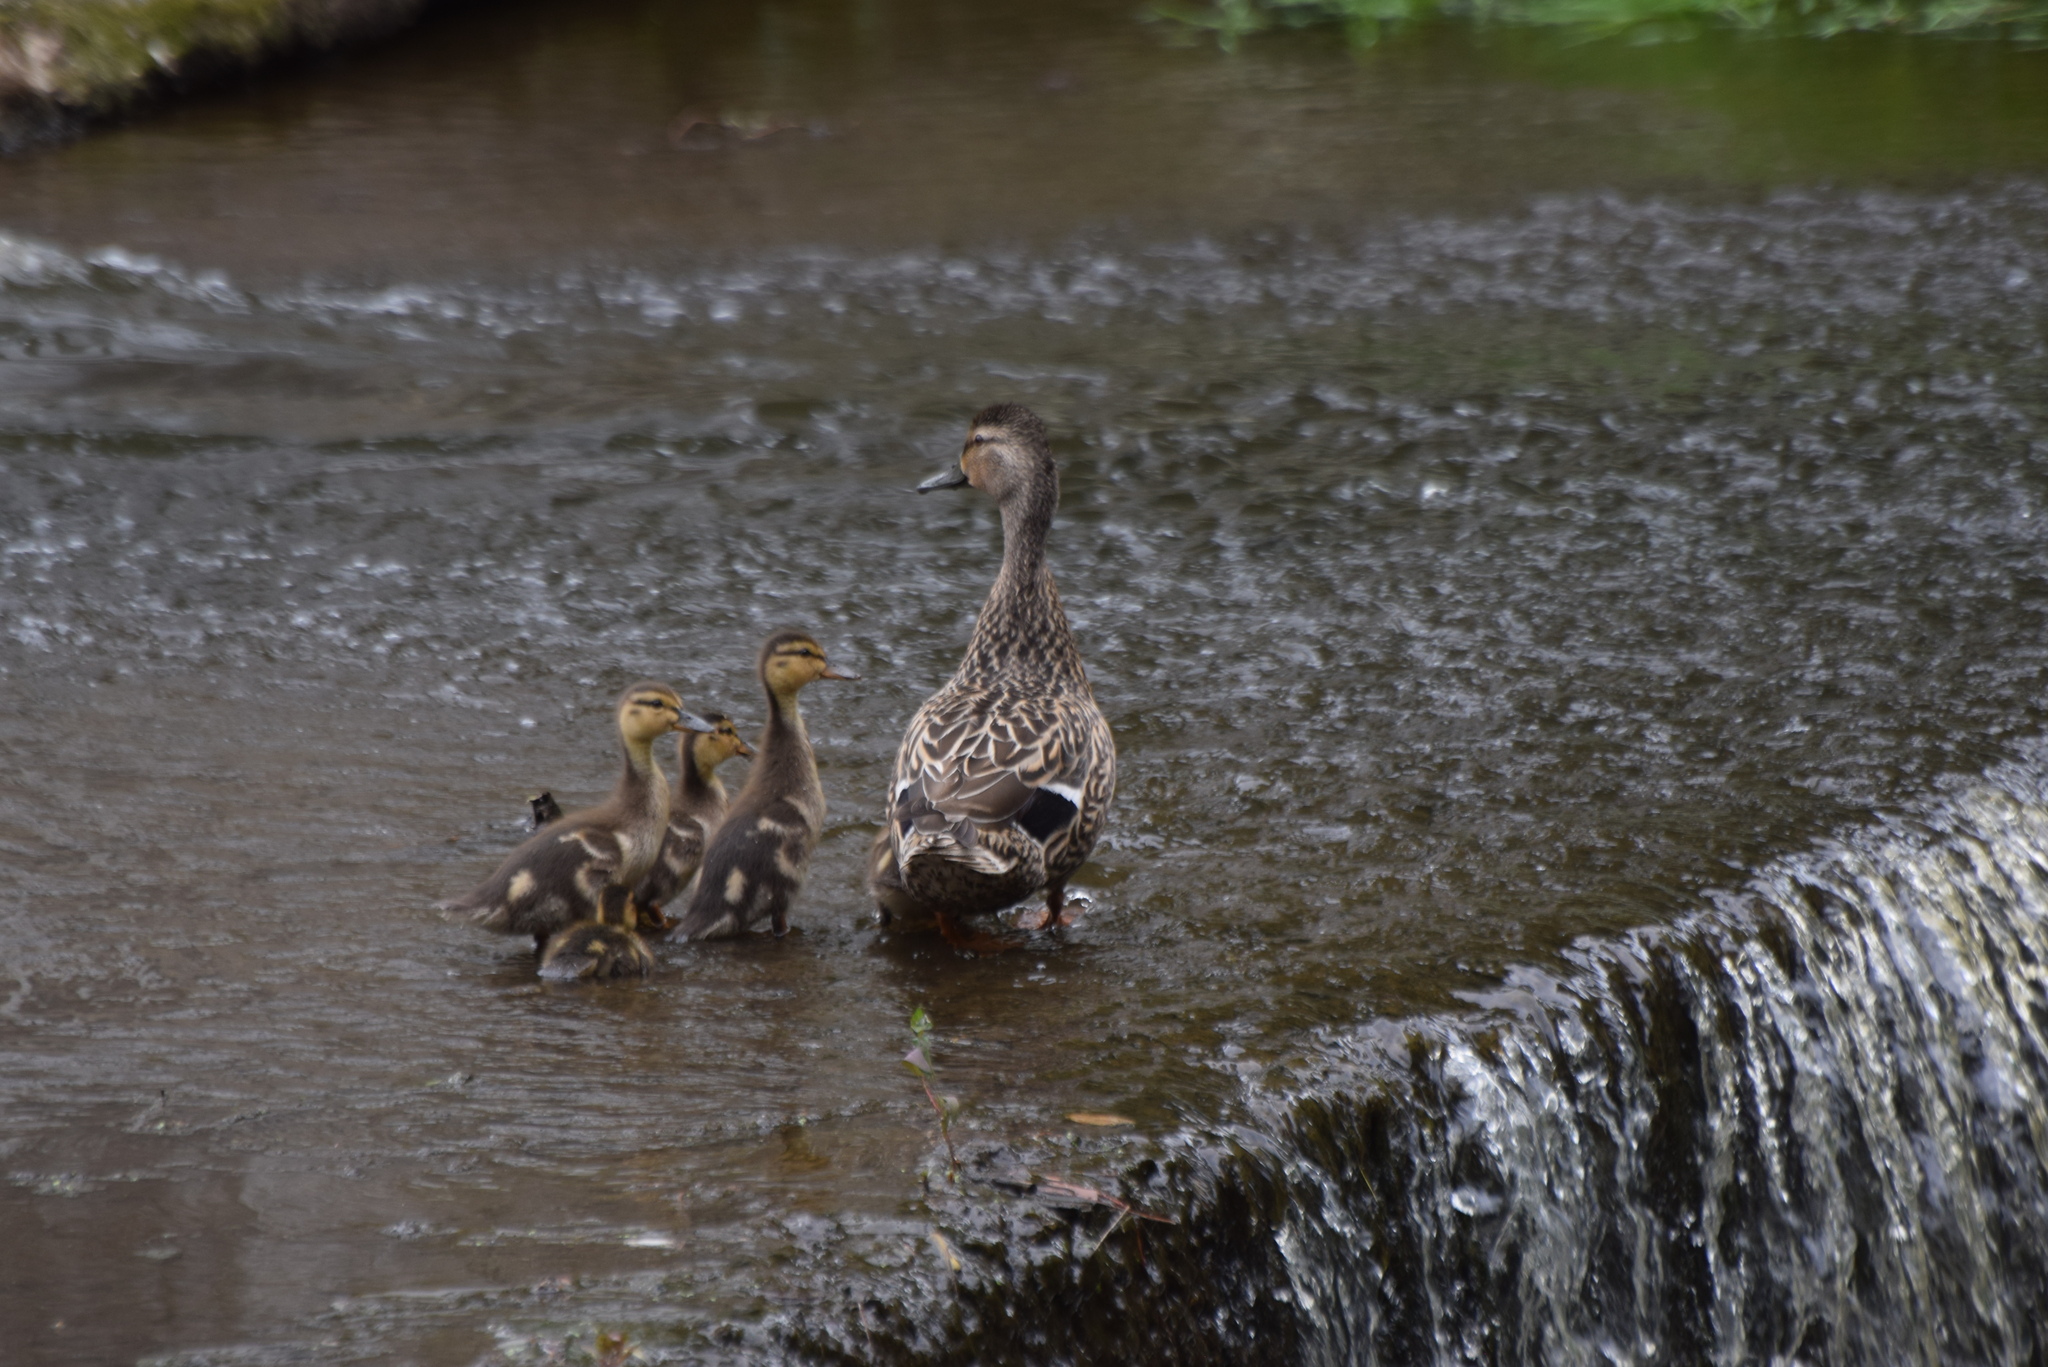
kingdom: Animalia
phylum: Chordata
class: Aves
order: Anseriformes
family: Anatidae
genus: Anas
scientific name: Anas platyrhynchos
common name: Mallard
